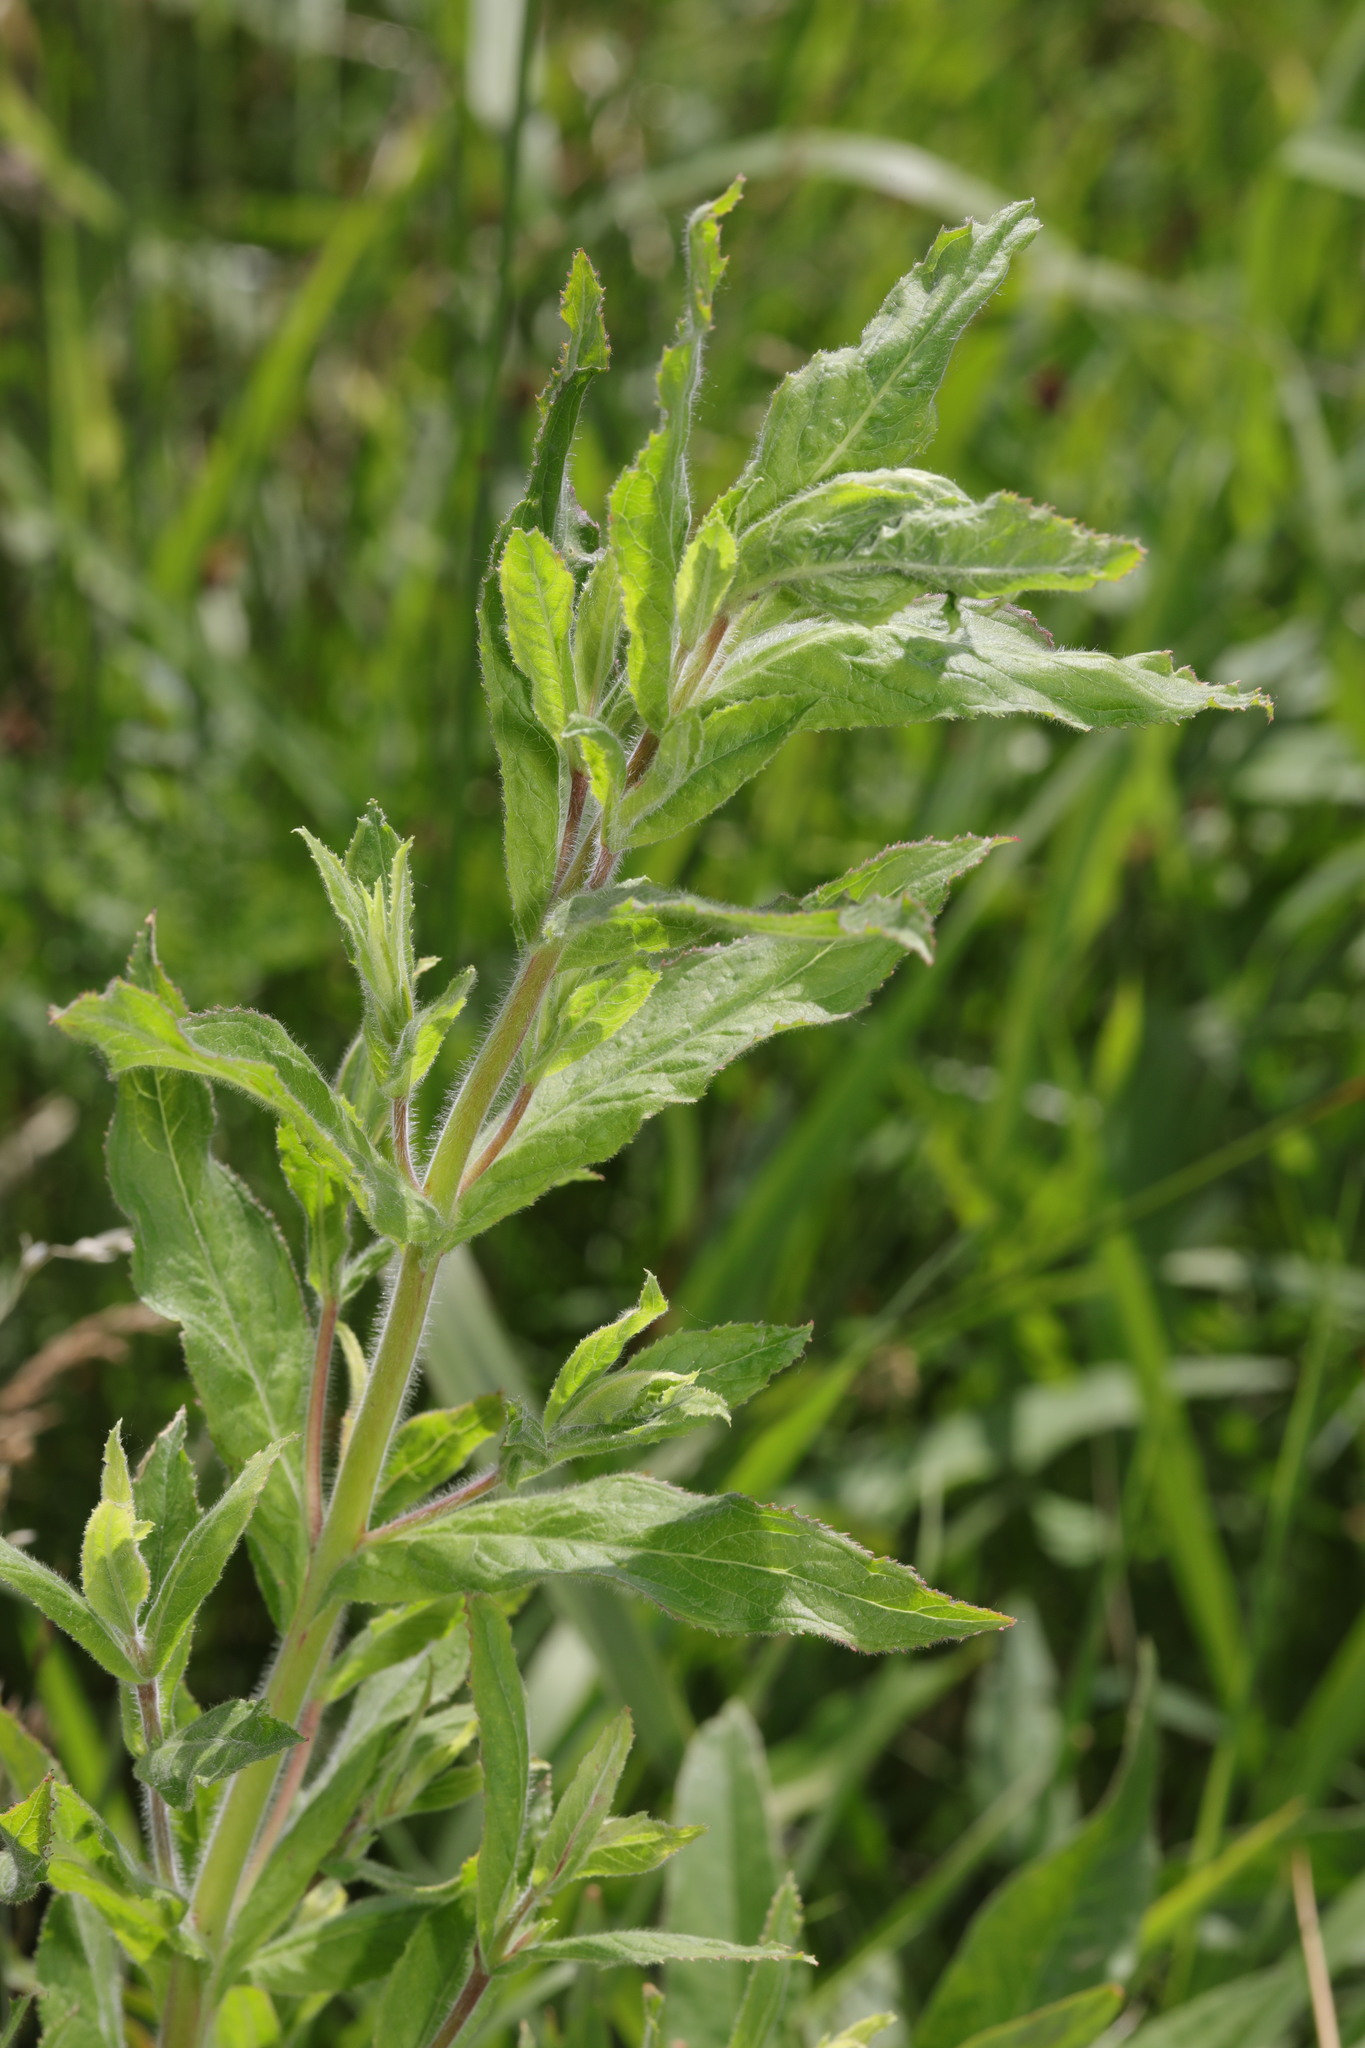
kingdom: Plantae
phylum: Tracheophyta
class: Magnoliopsida
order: Myrtales
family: Onagraceae
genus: Epilobium
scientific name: Epilobium hirsutum
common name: Great willowherb
